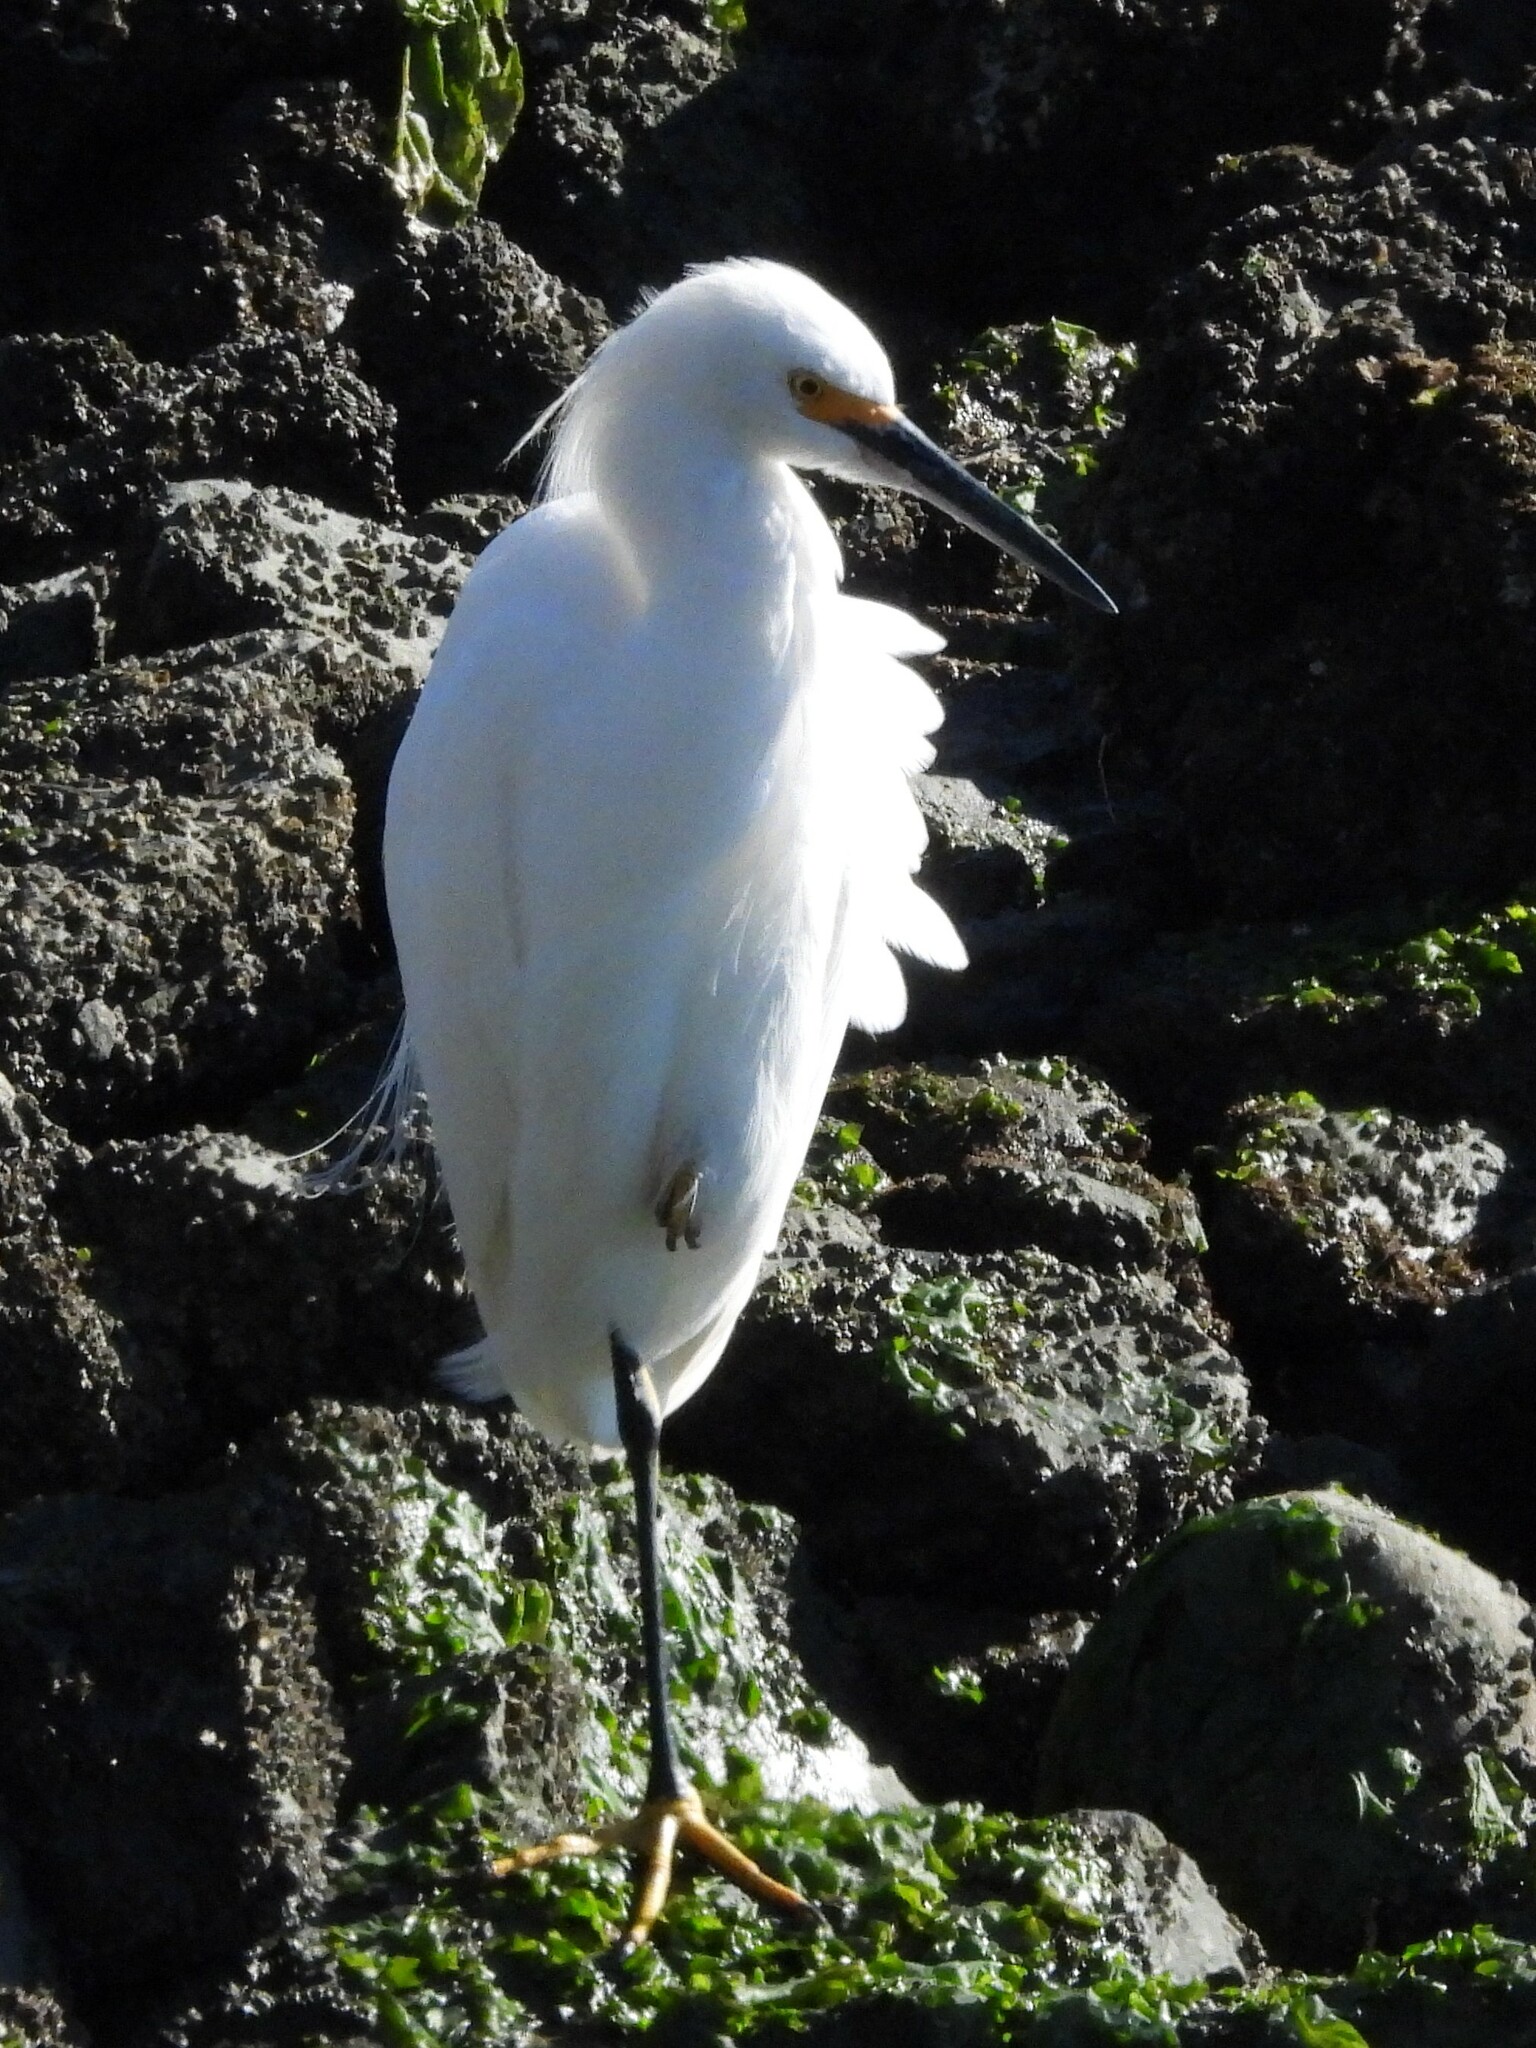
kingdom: Animalia
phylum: Chordata
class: Aves
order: Pelecaniformes
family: Ardeidae
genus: Egretta
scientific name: Egretta thula
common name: Snowy egret
